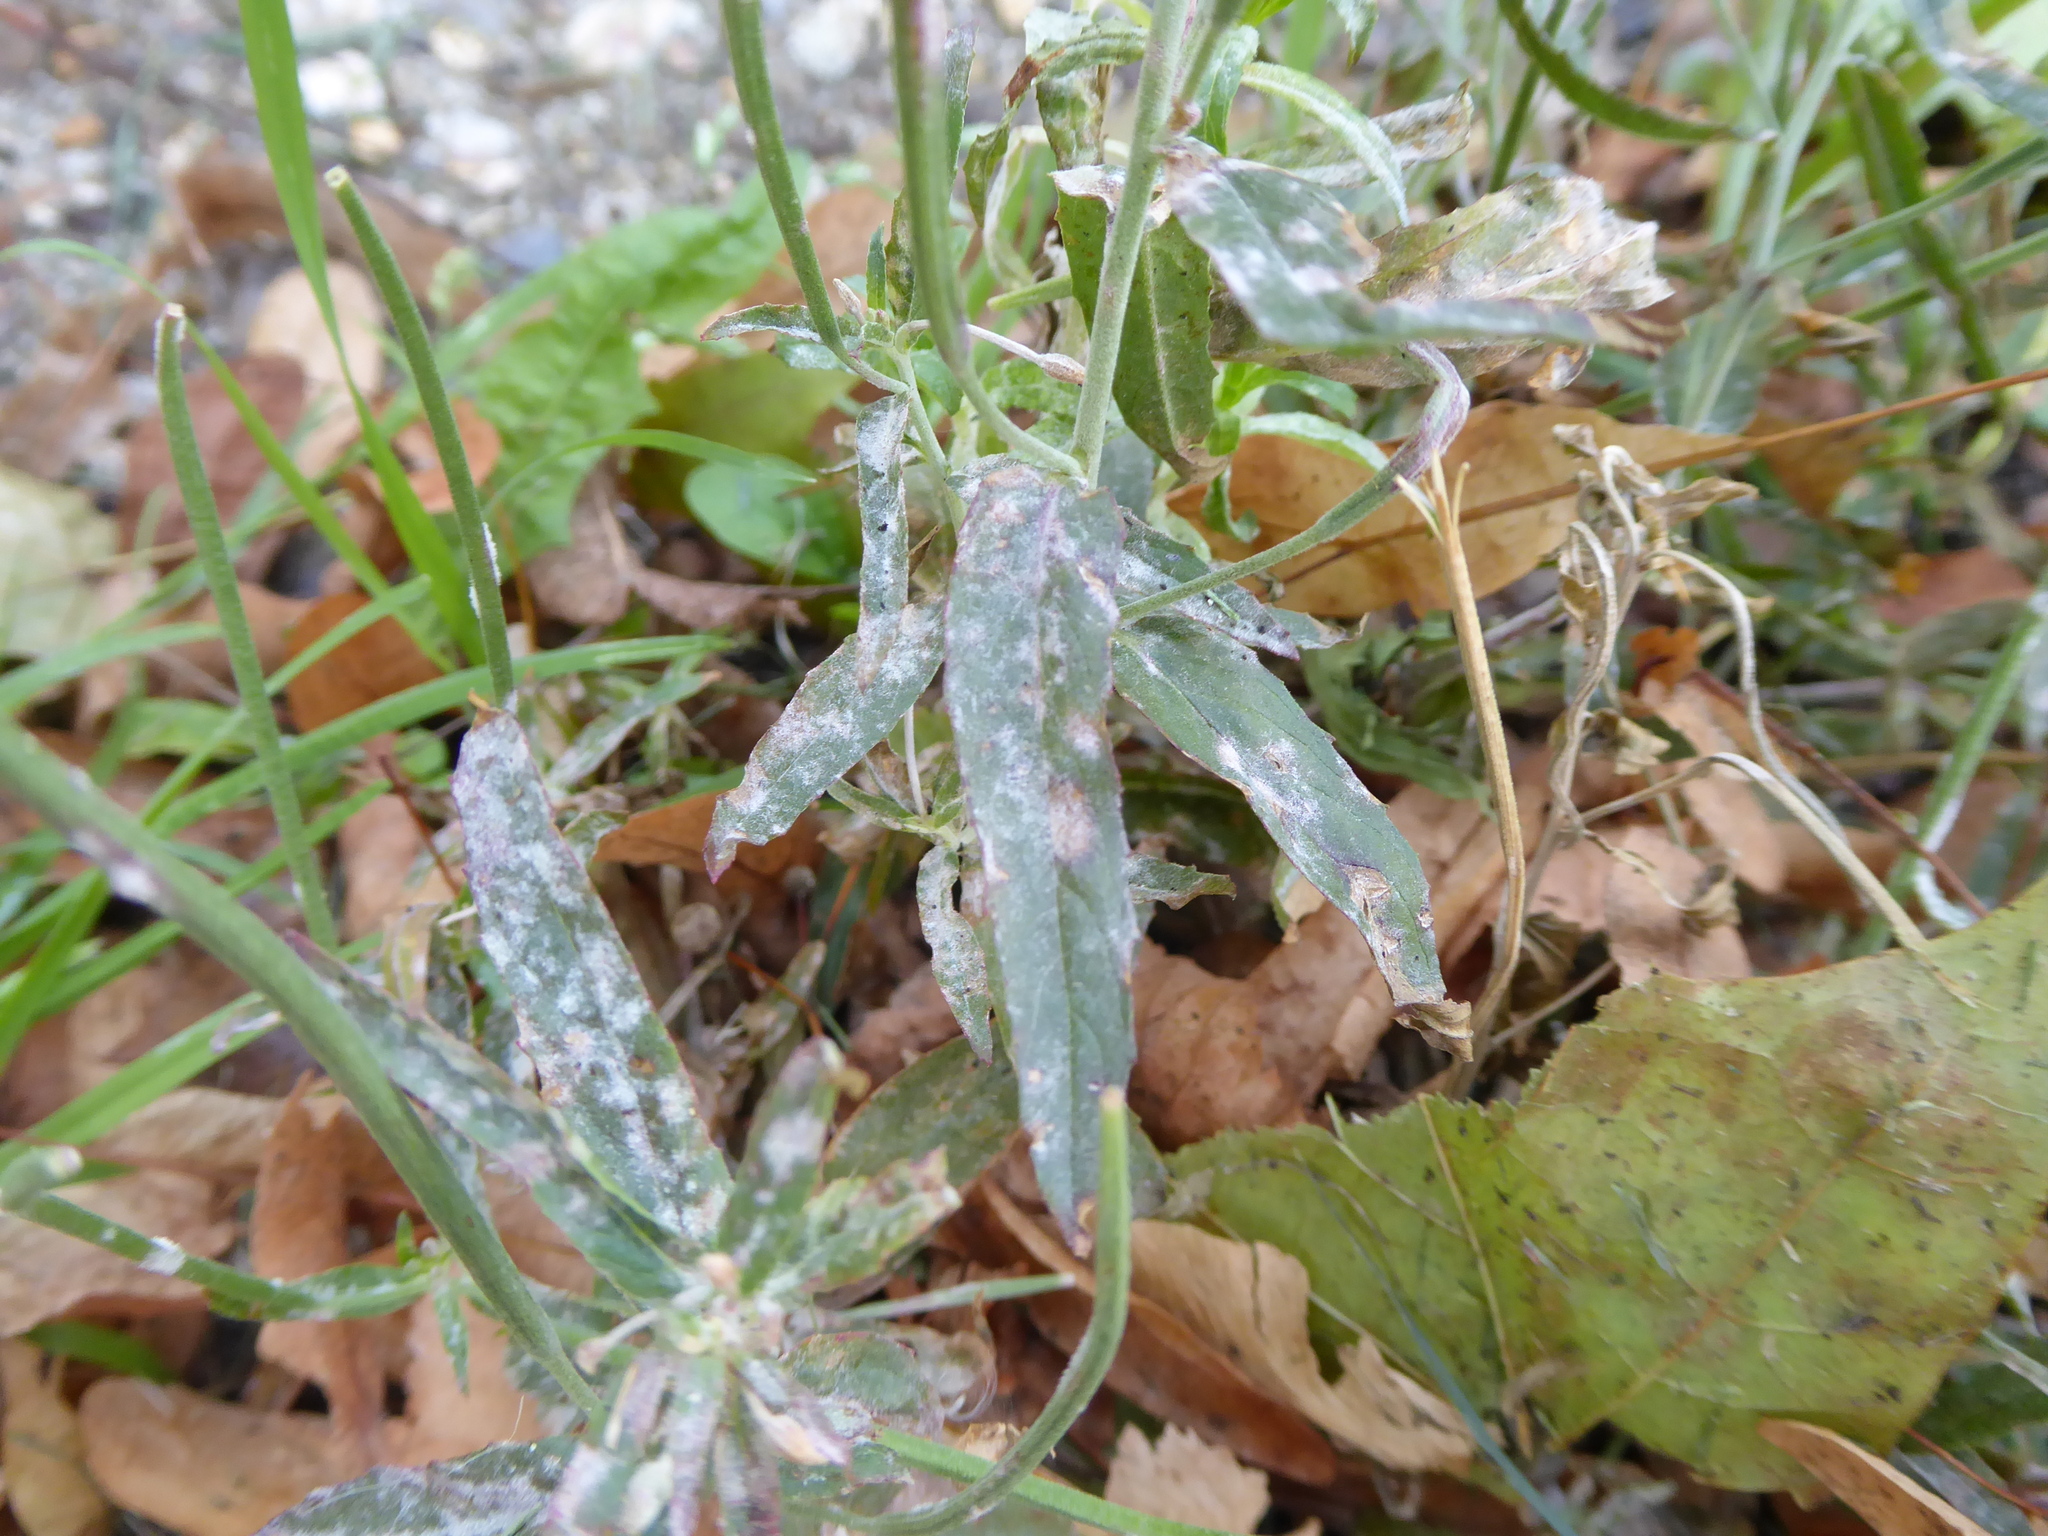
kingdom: Fungi
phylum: Ascomycota
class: Leotiomycetes
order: Helotiales
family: Erysiphaceae
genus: Podosphaera
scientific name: Podosphaera epilobii
